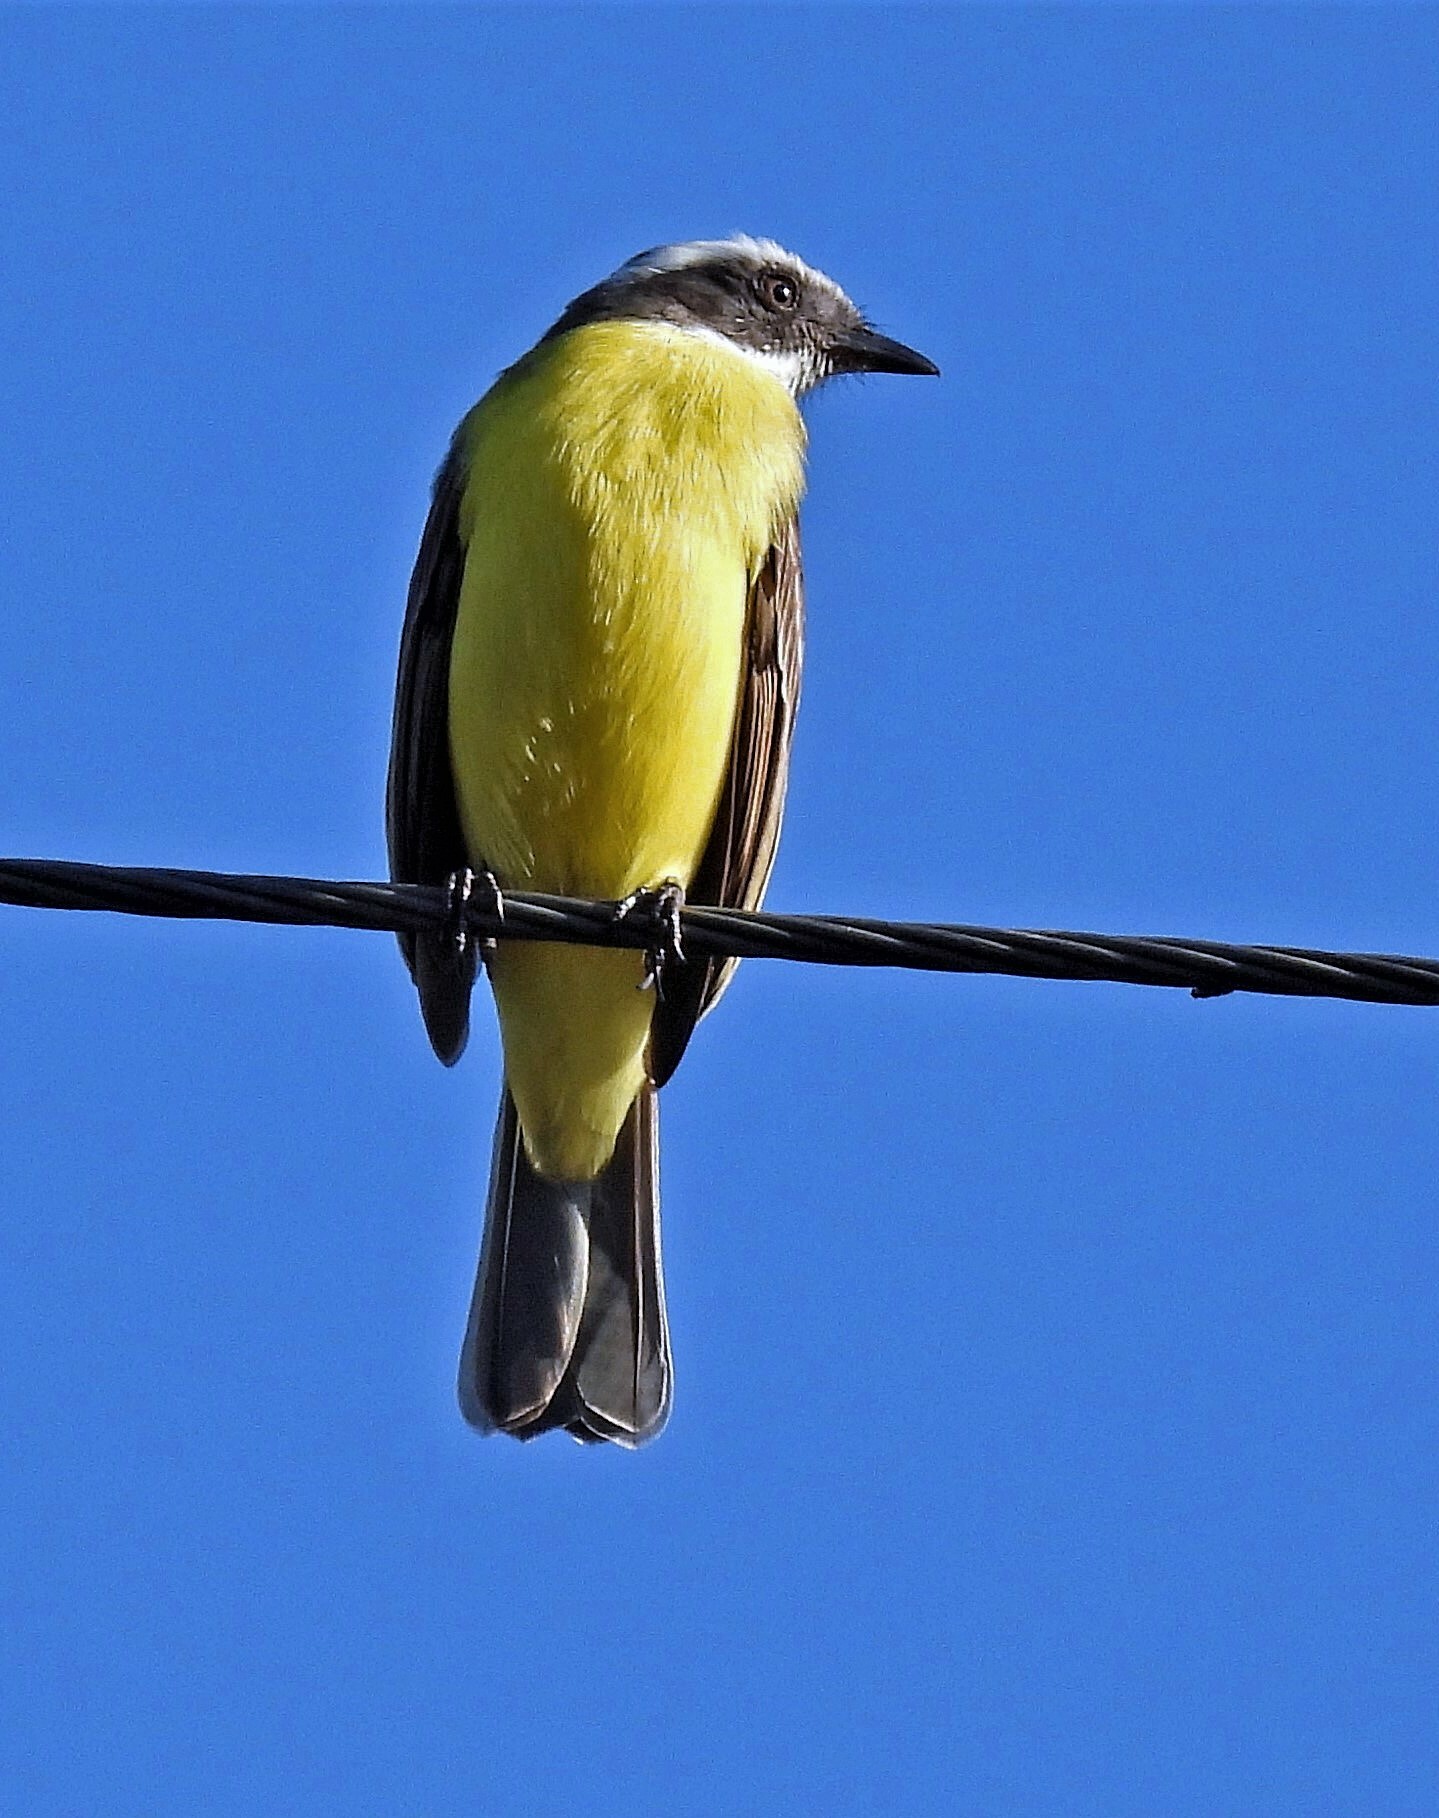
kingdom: Animalia
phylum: Chordata
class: Aves
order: Passeriformes
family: Tyrannidae
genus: Myiozetetes
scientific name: Myiozetetes similis
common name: Social flycatcher
